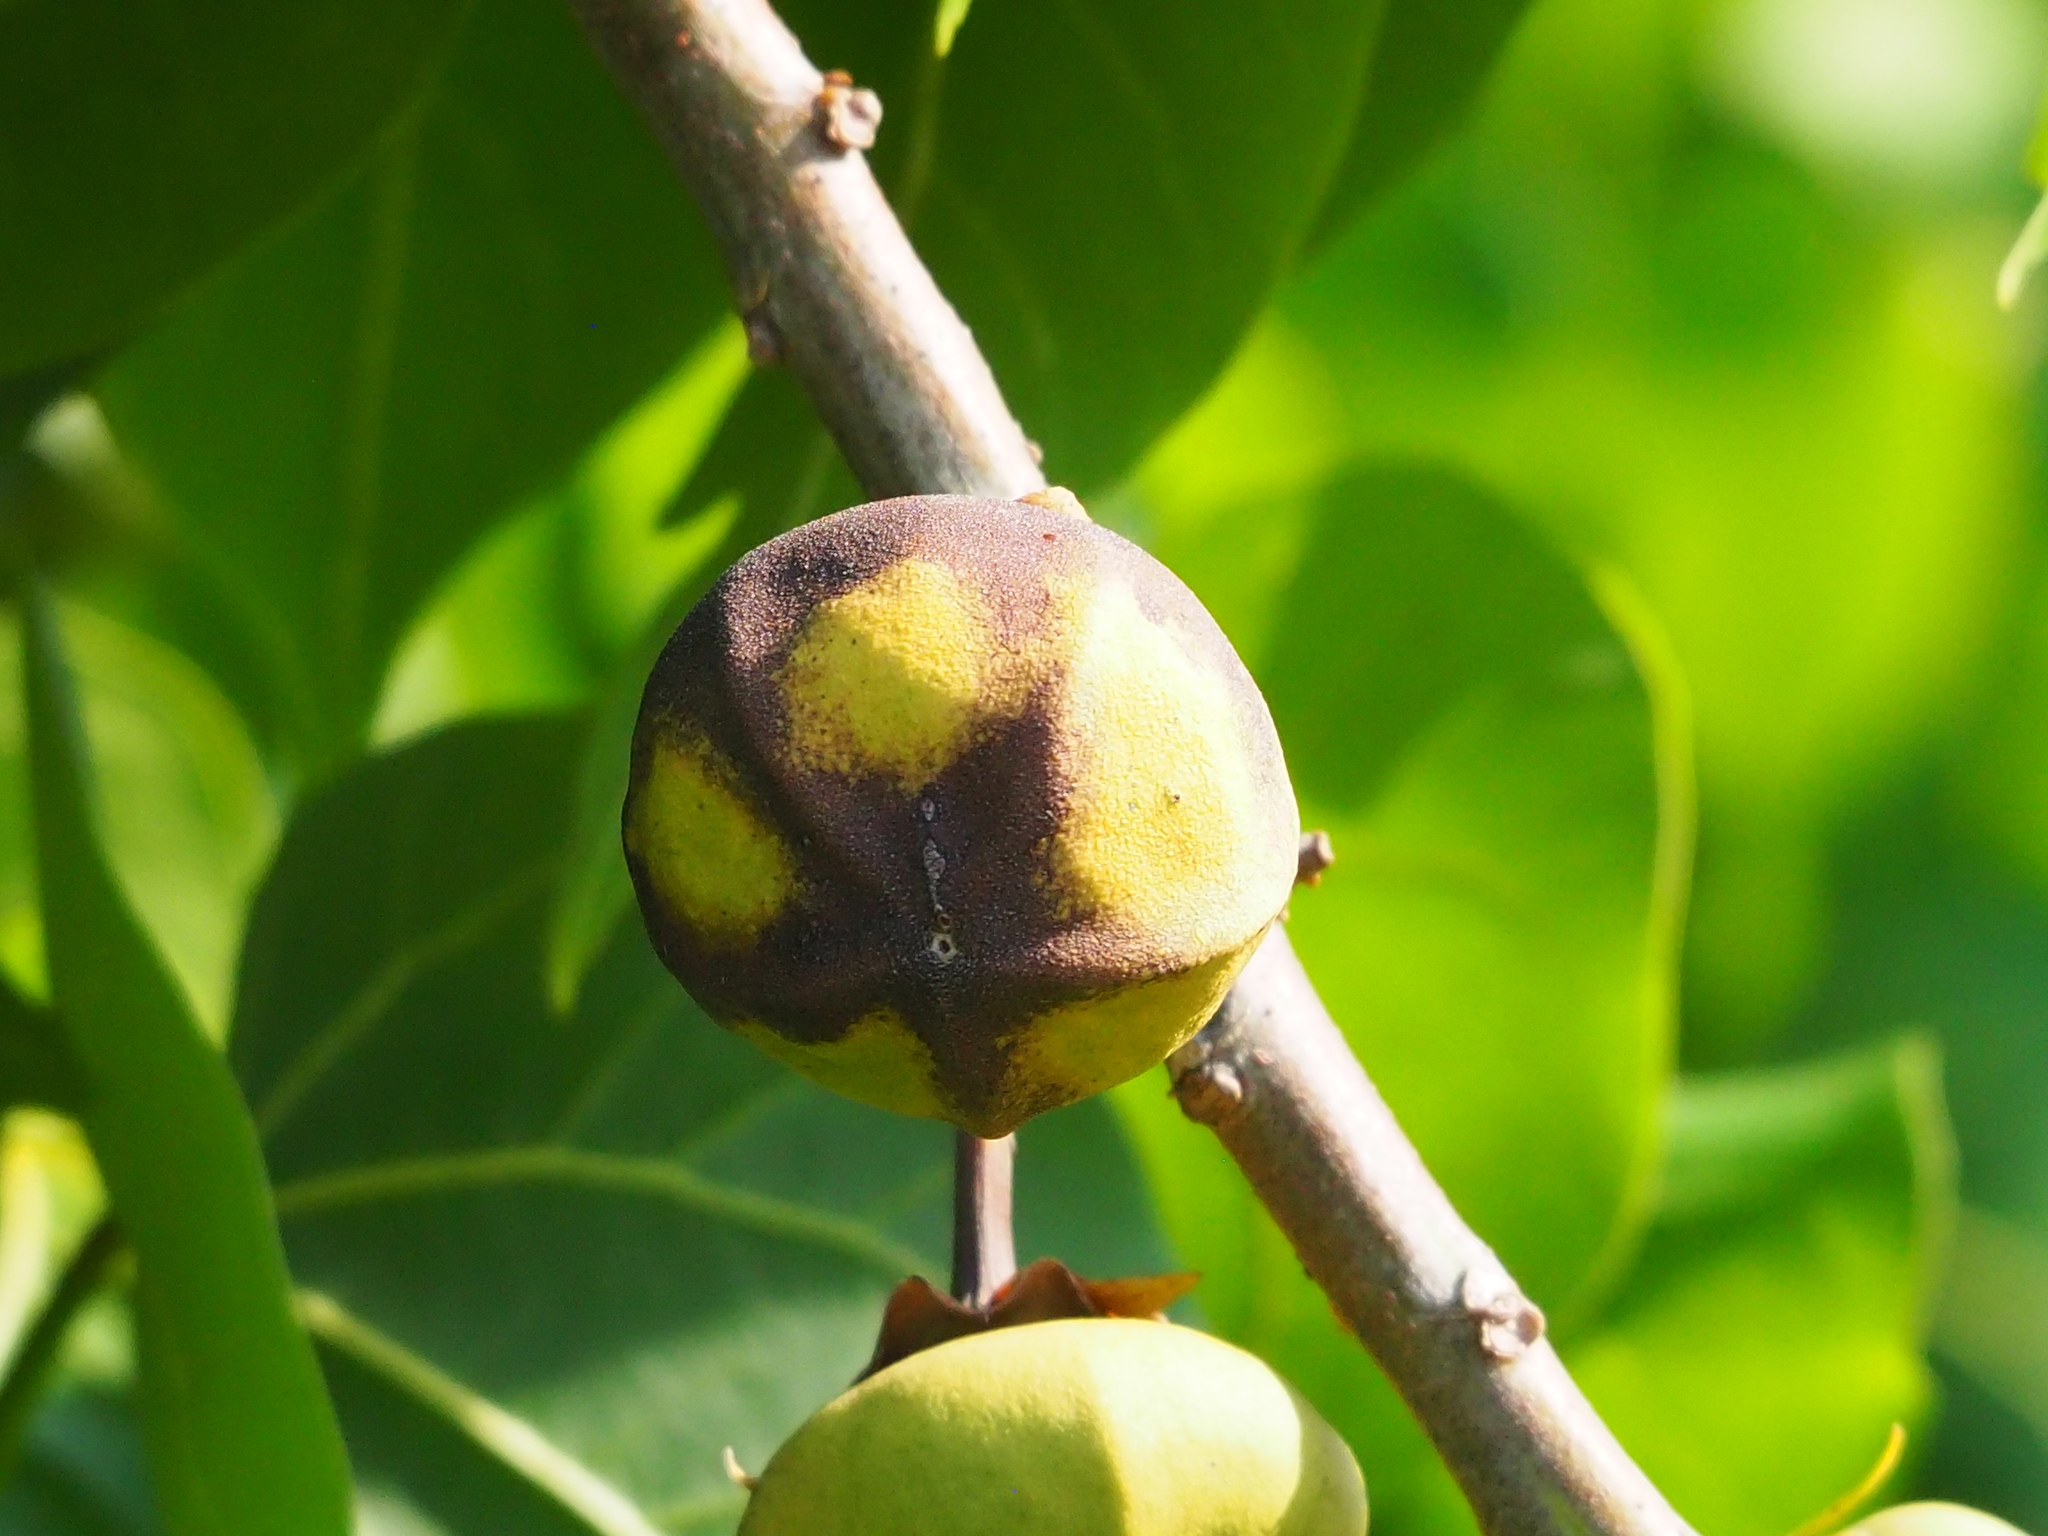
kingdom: Plantae
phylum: Tracheophyta
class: Magnoliopsida
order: Malvales
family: Malvaceae
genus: Thespesia
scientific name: Thespesia populnea
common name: Seaside mahoe
